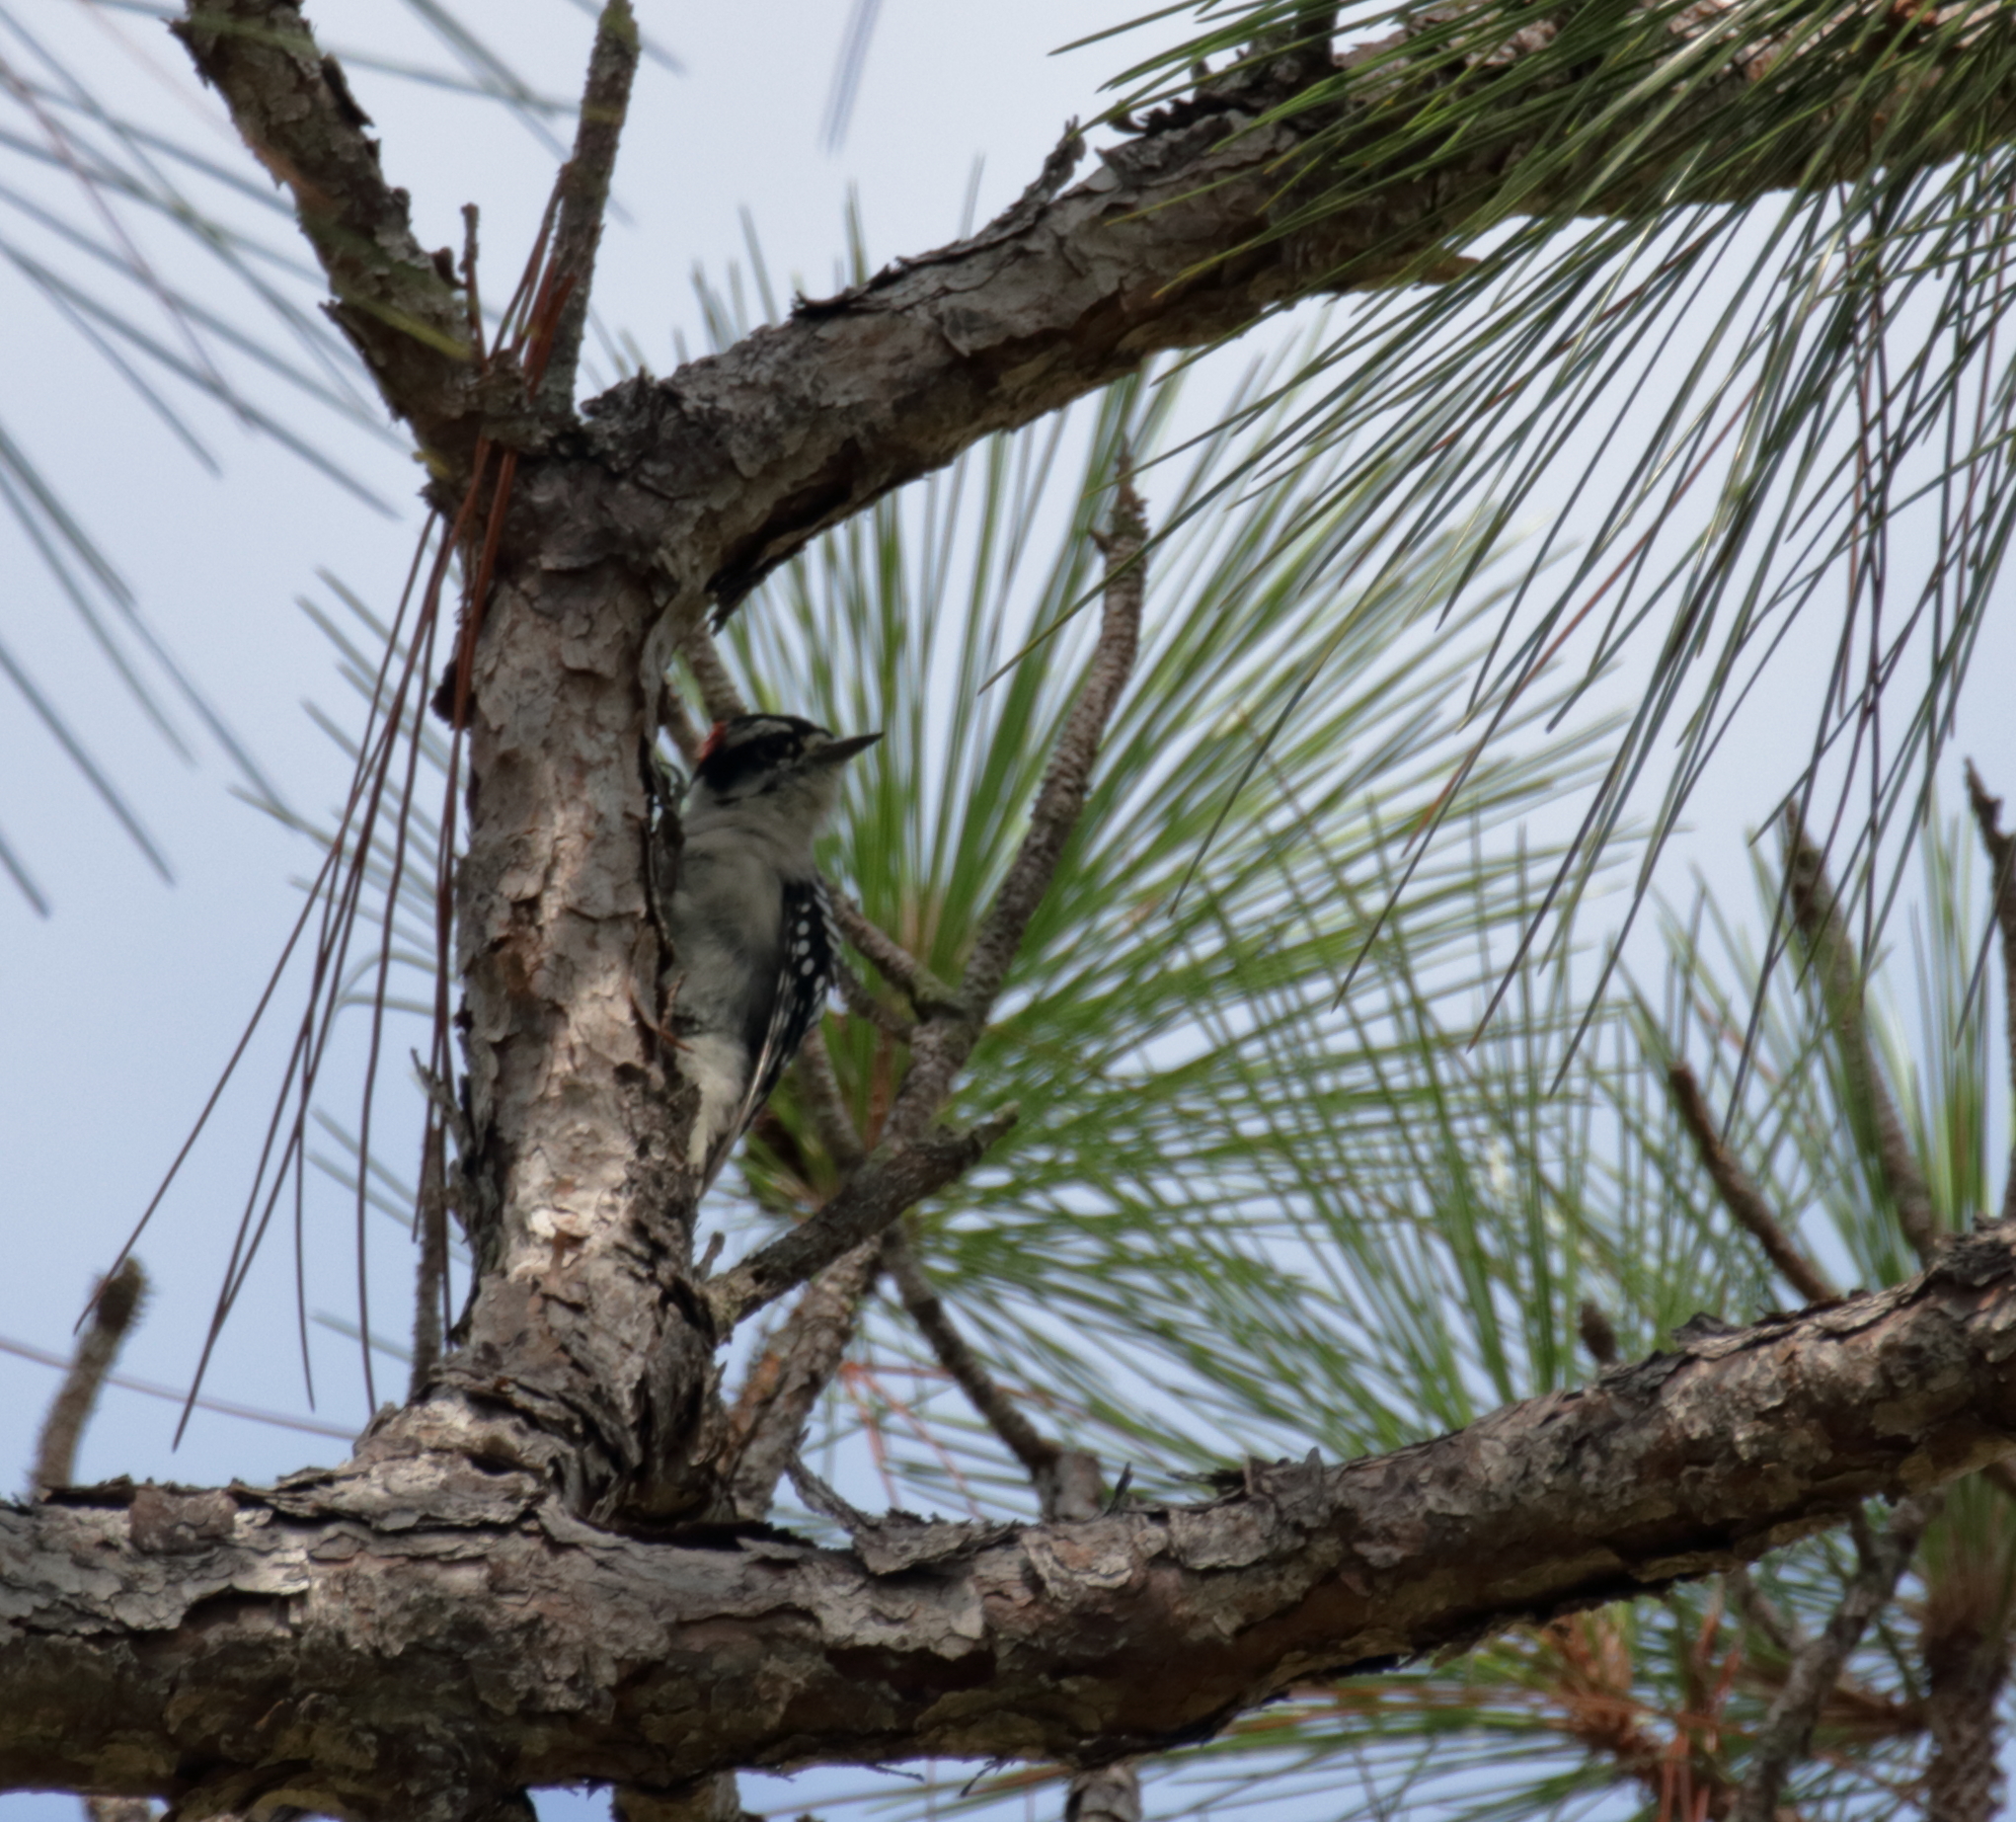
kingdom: Animalia
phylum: Chordata
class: Aves
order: Piciformes
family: Picidae
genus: Dryobates
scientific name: Dryobates pubescens
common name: Downy woodpecker
